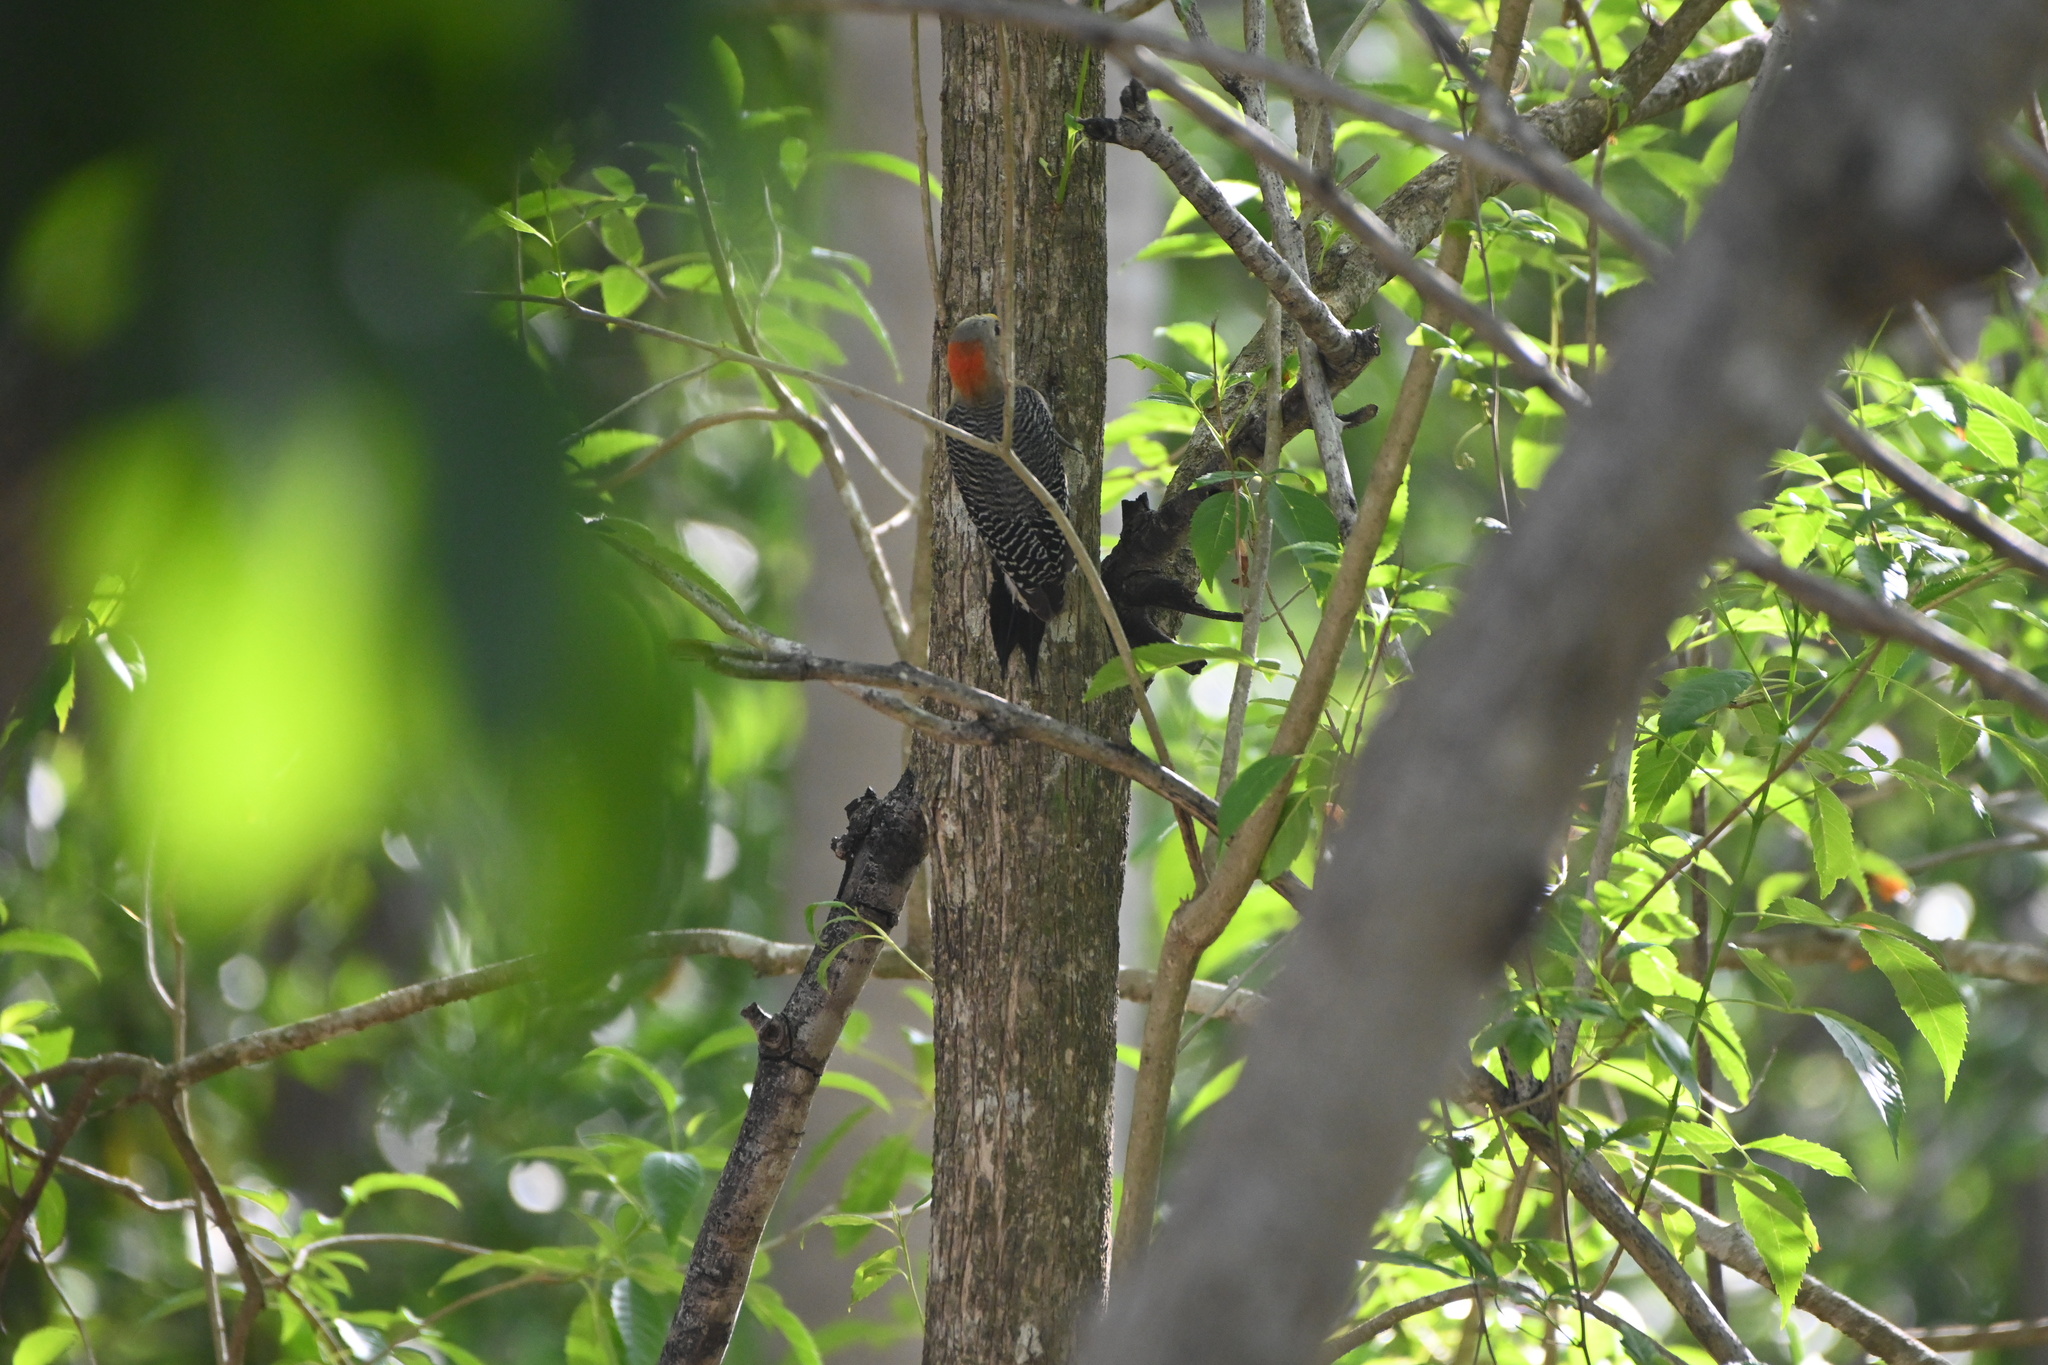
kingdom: Animalia
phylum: Chordata
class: Aves
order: Piciformes
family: Picidae
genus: Melanerpes
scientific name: Melanerpes pygmaeus
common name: Yucatan woodpecker
